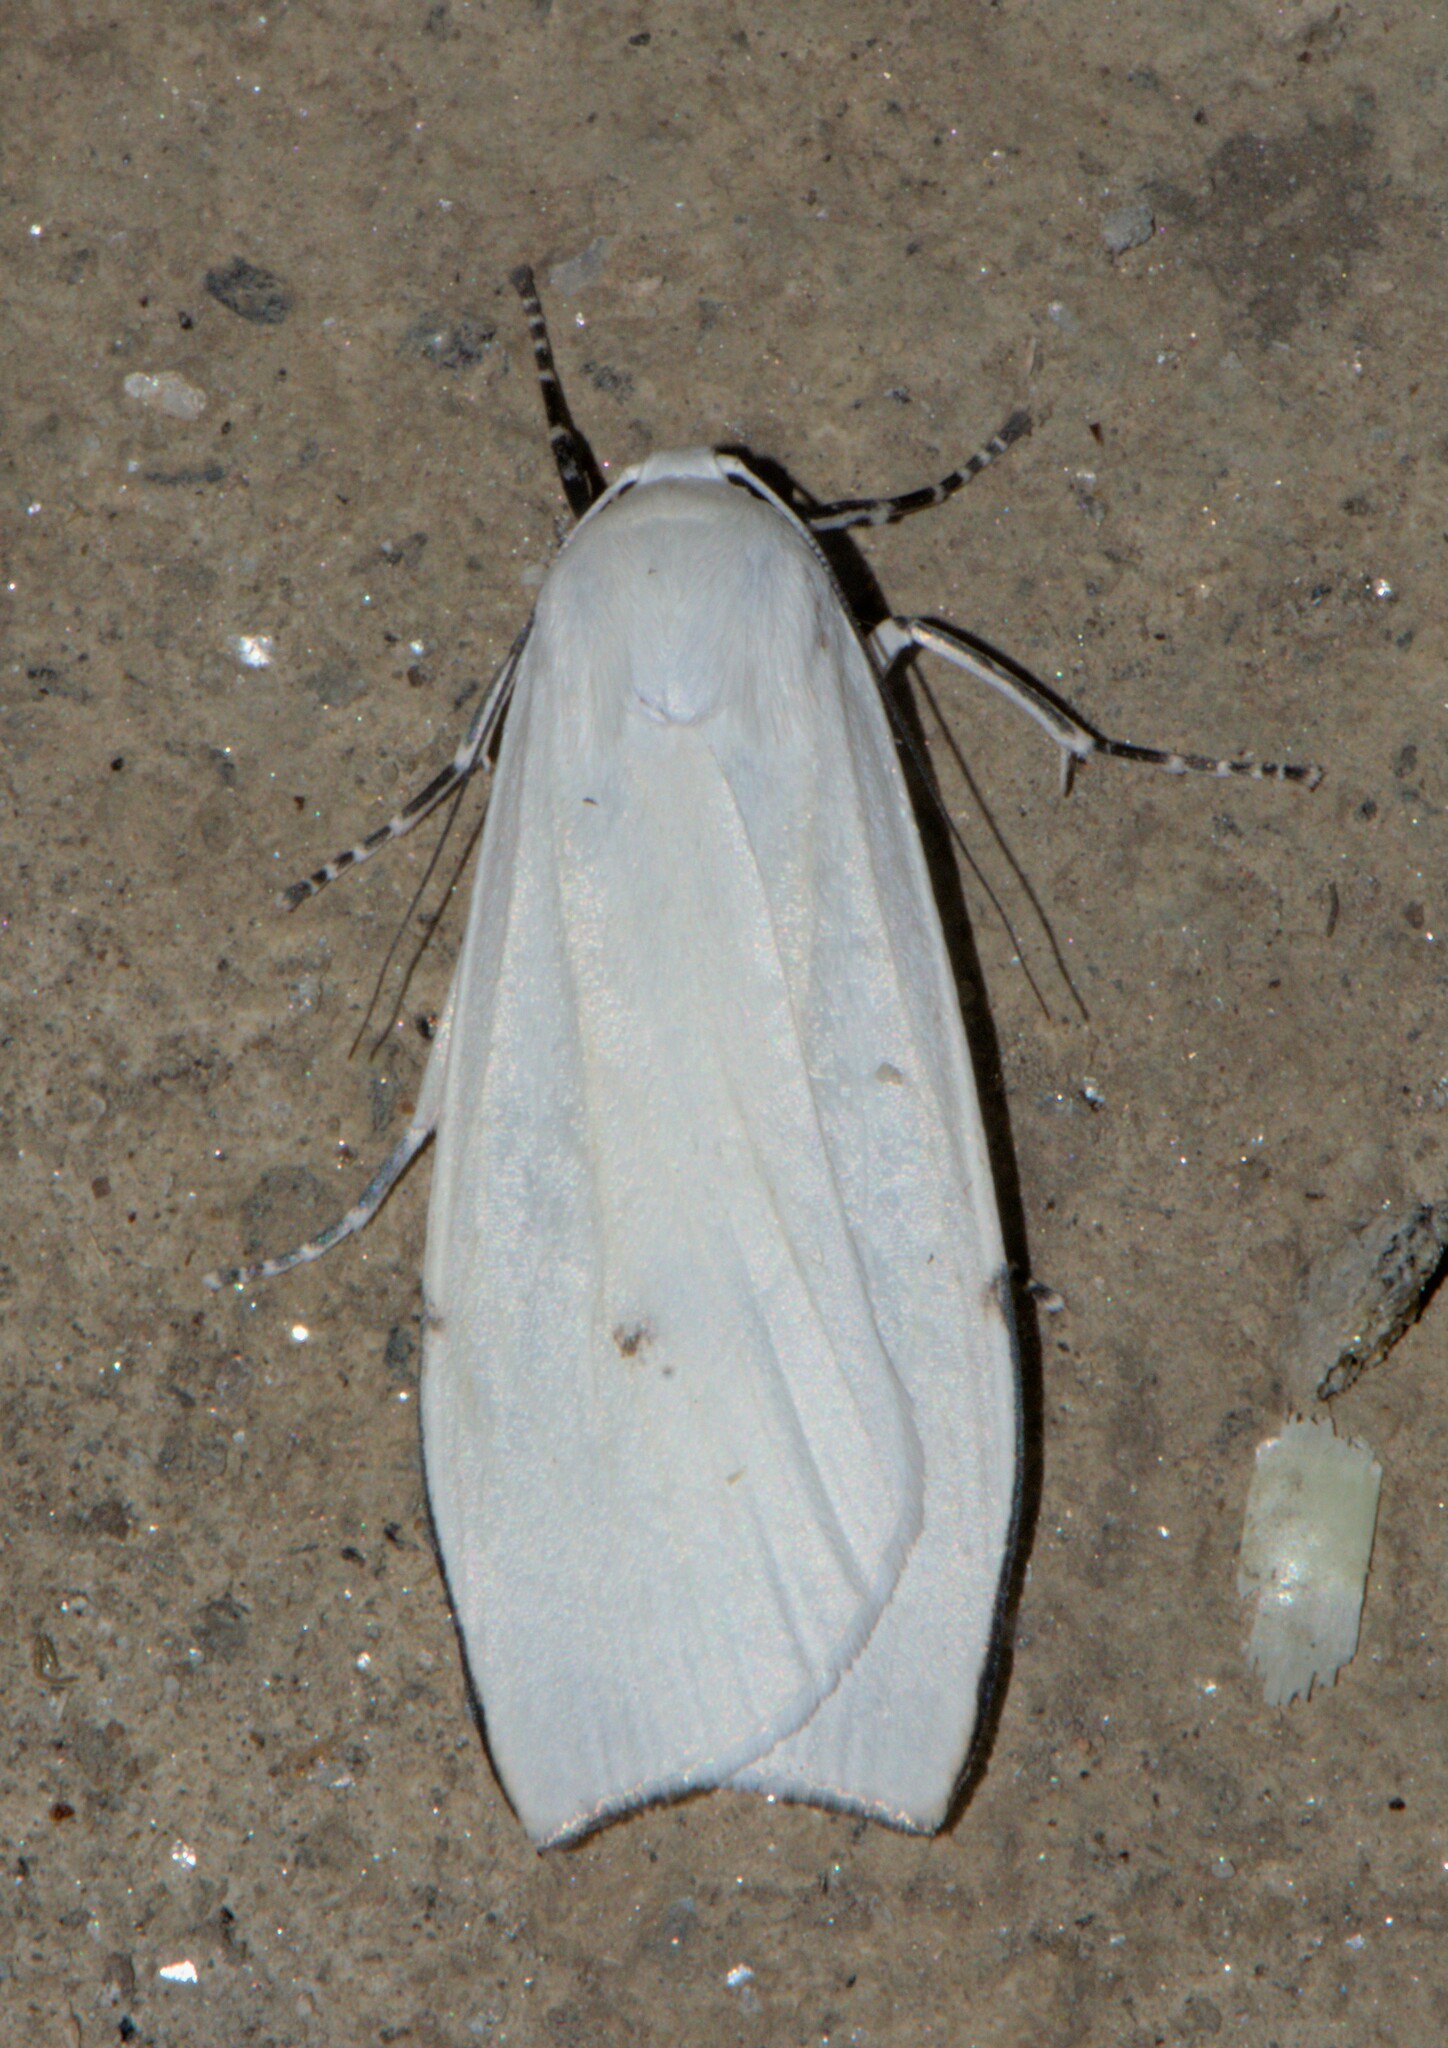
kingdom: Animalia
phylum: Arthropoda
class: Insecta
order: Lepidoptera
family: Erebidae
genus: Vamuna
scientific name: Vamuna remelana
